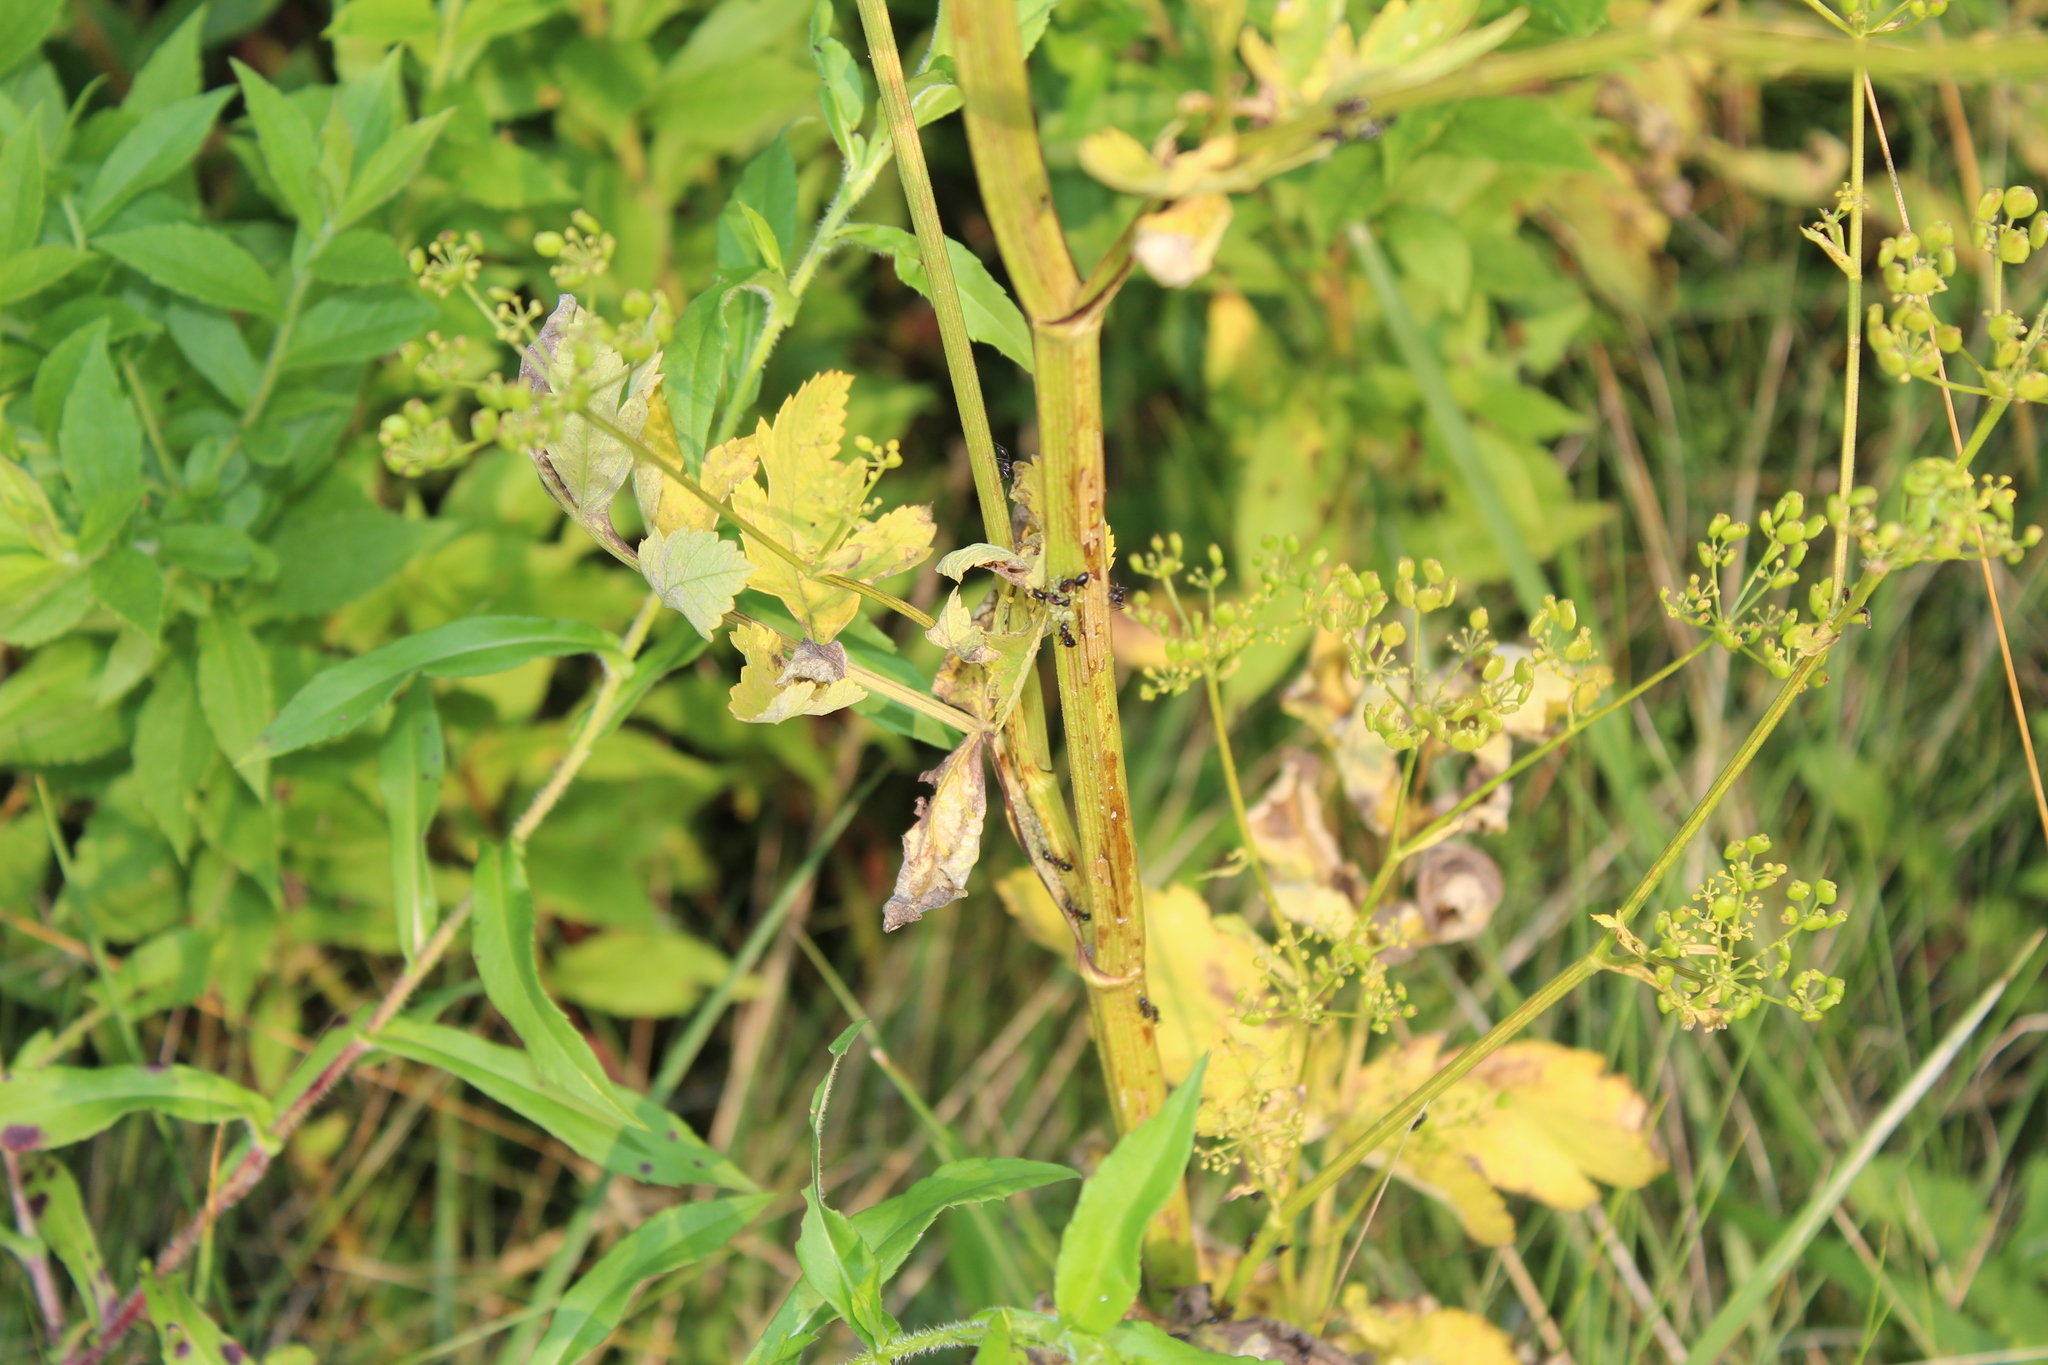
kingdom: Plantae
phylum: Tracheophyta
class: Magnoliopsida
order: Apiales
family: Apiaceae
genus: Pastinaca
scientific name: Pastinaca sativa
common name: Wild parsnip
